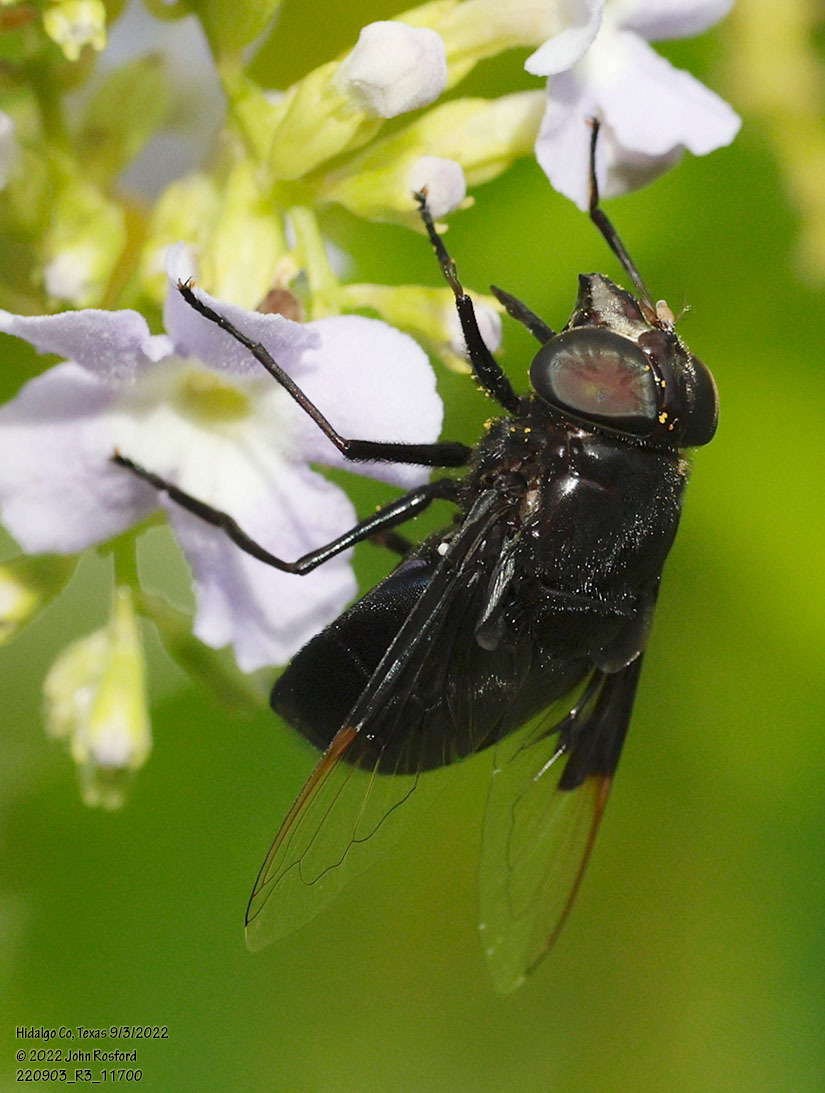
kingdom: Animalia
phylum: Arthropoda
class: Insecta
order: Diptera
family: Syrphidae
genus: Copestylum
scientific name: Copestylum
